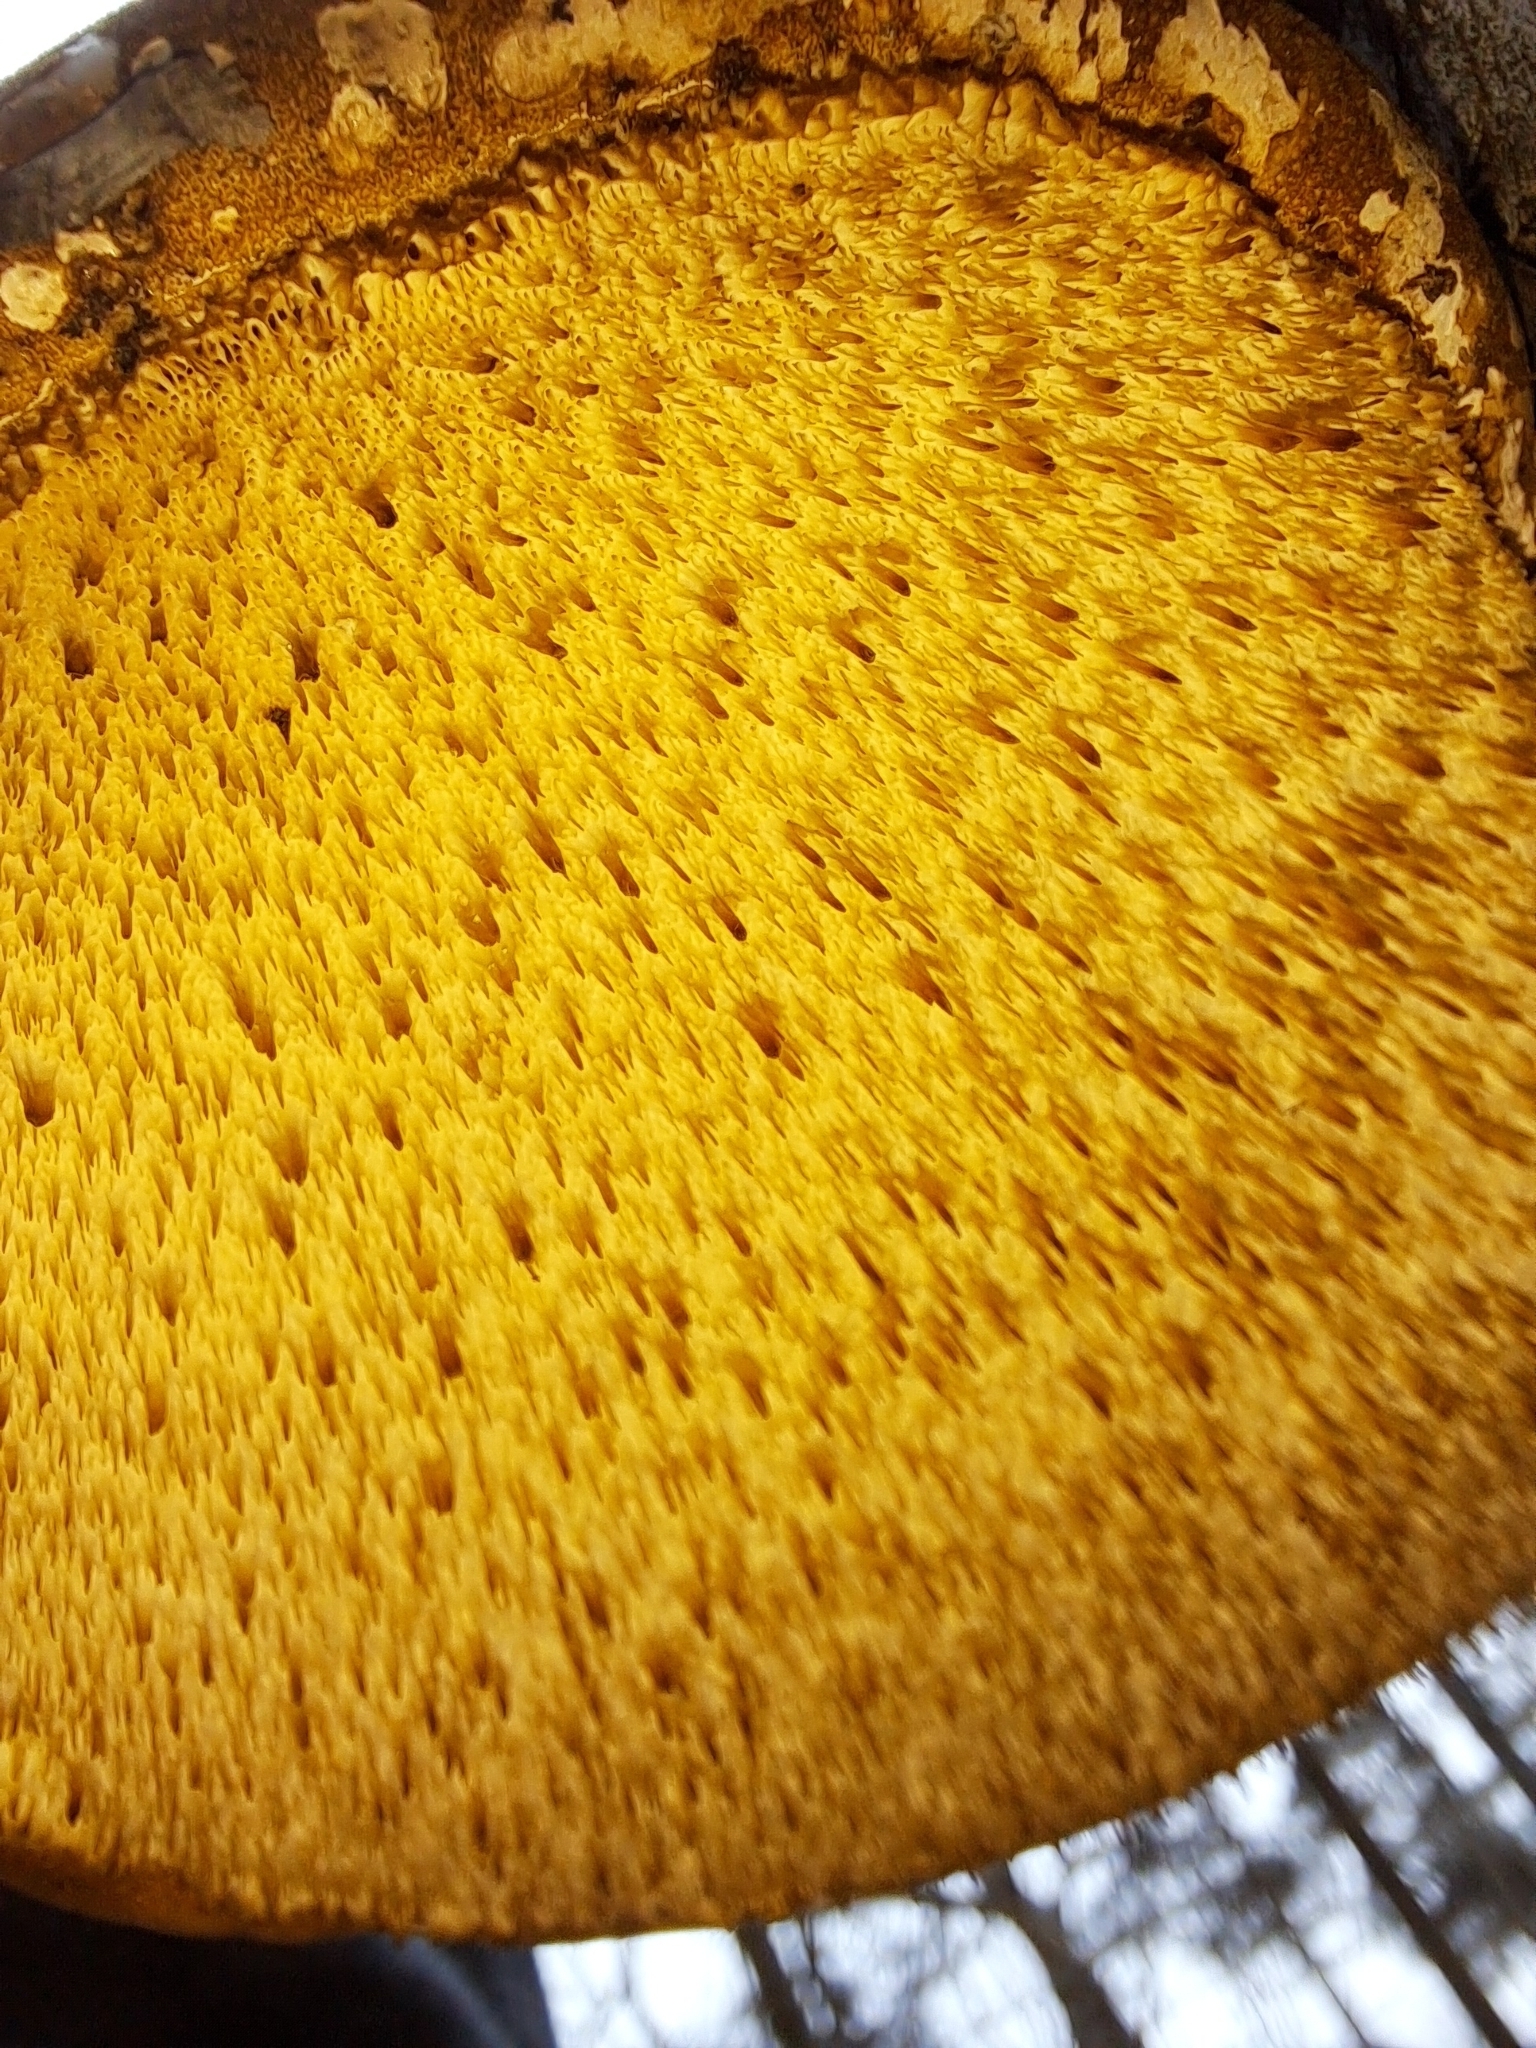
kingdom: Fungi
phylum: Basidiomycota
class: Agaricomycetes
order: Polyporales
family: Fomitopsidaceae
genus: Fomitopsis
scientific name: Fomitopsis betulina
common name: Birch polypore
